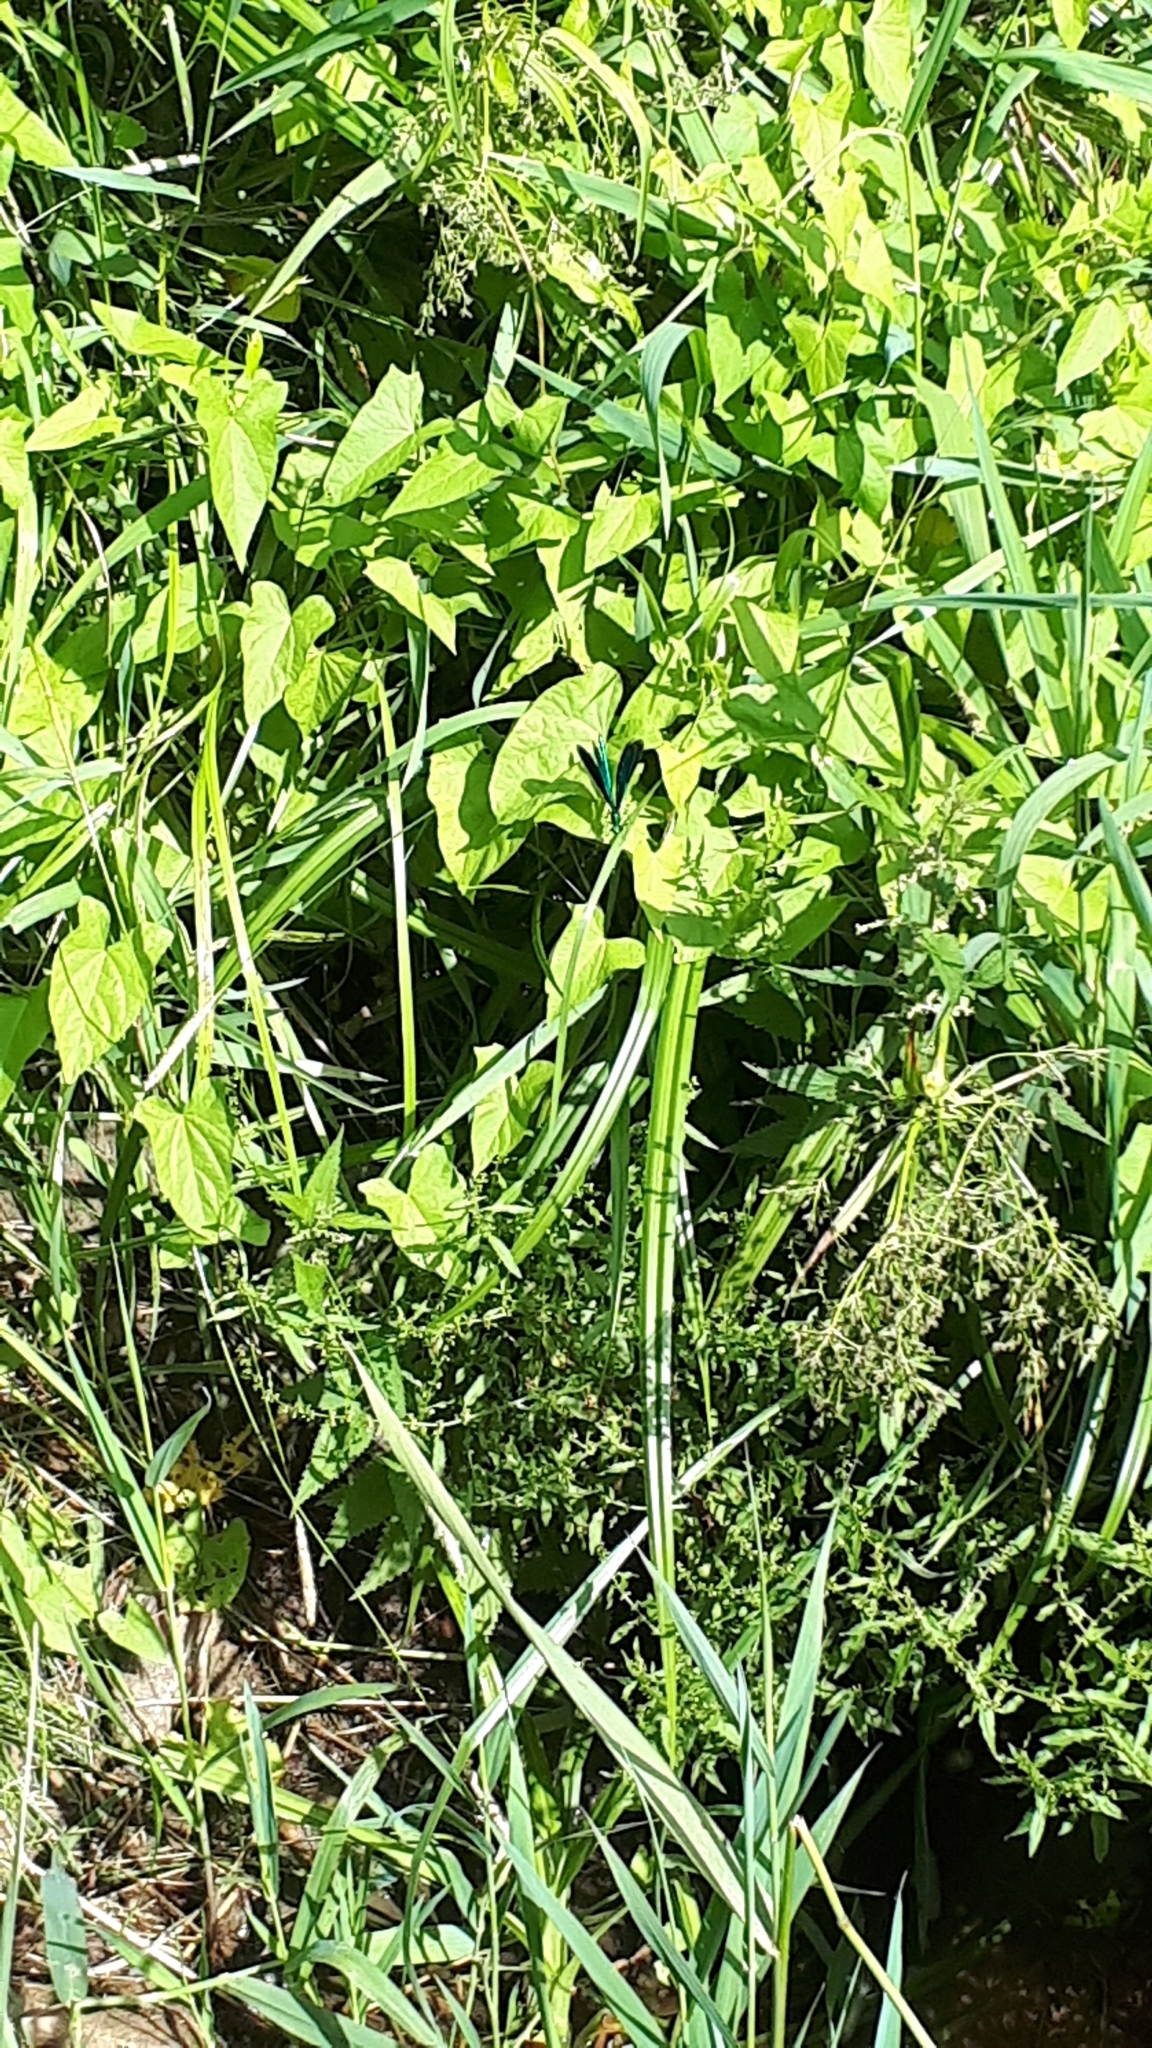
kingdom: Animalia
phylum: Arthropoda
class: Insecta
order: Odonata
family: Calopterygidae
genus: Calopteryx
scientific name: Calopteryx virgo
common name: Beautiful demoiselle
